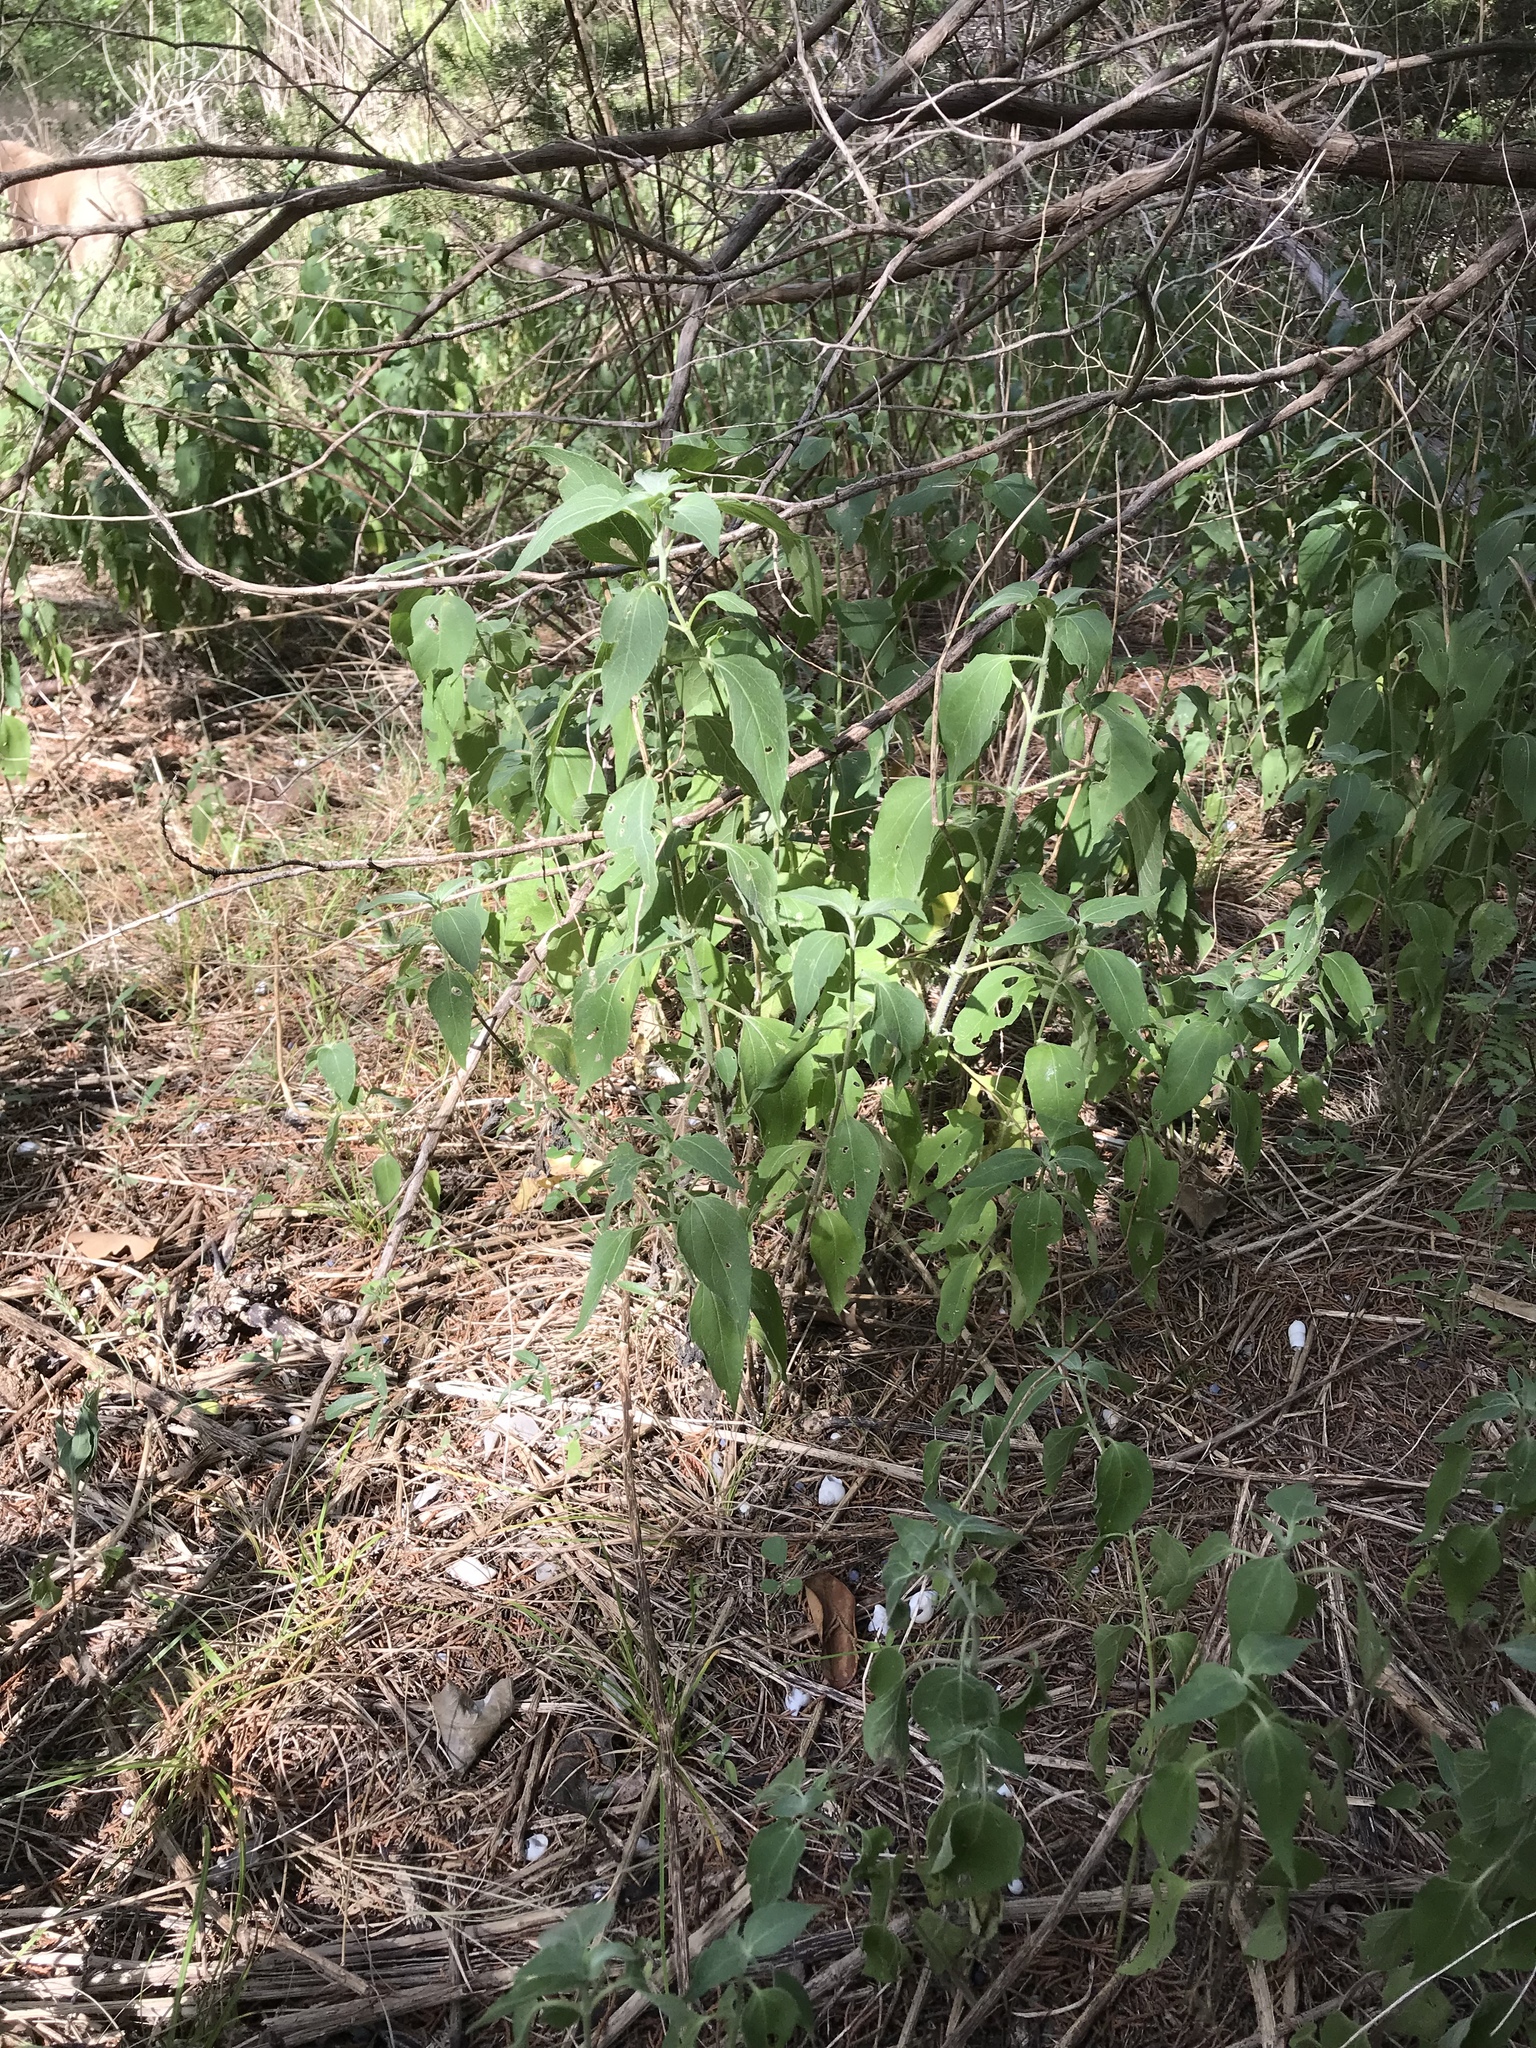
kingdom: Plantae
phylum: Tracheophyta
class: Magnoliopsida
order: Asterales
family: Asteraceae
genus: Viguiera
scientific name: Viguiera dentata
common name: Toothleaf
